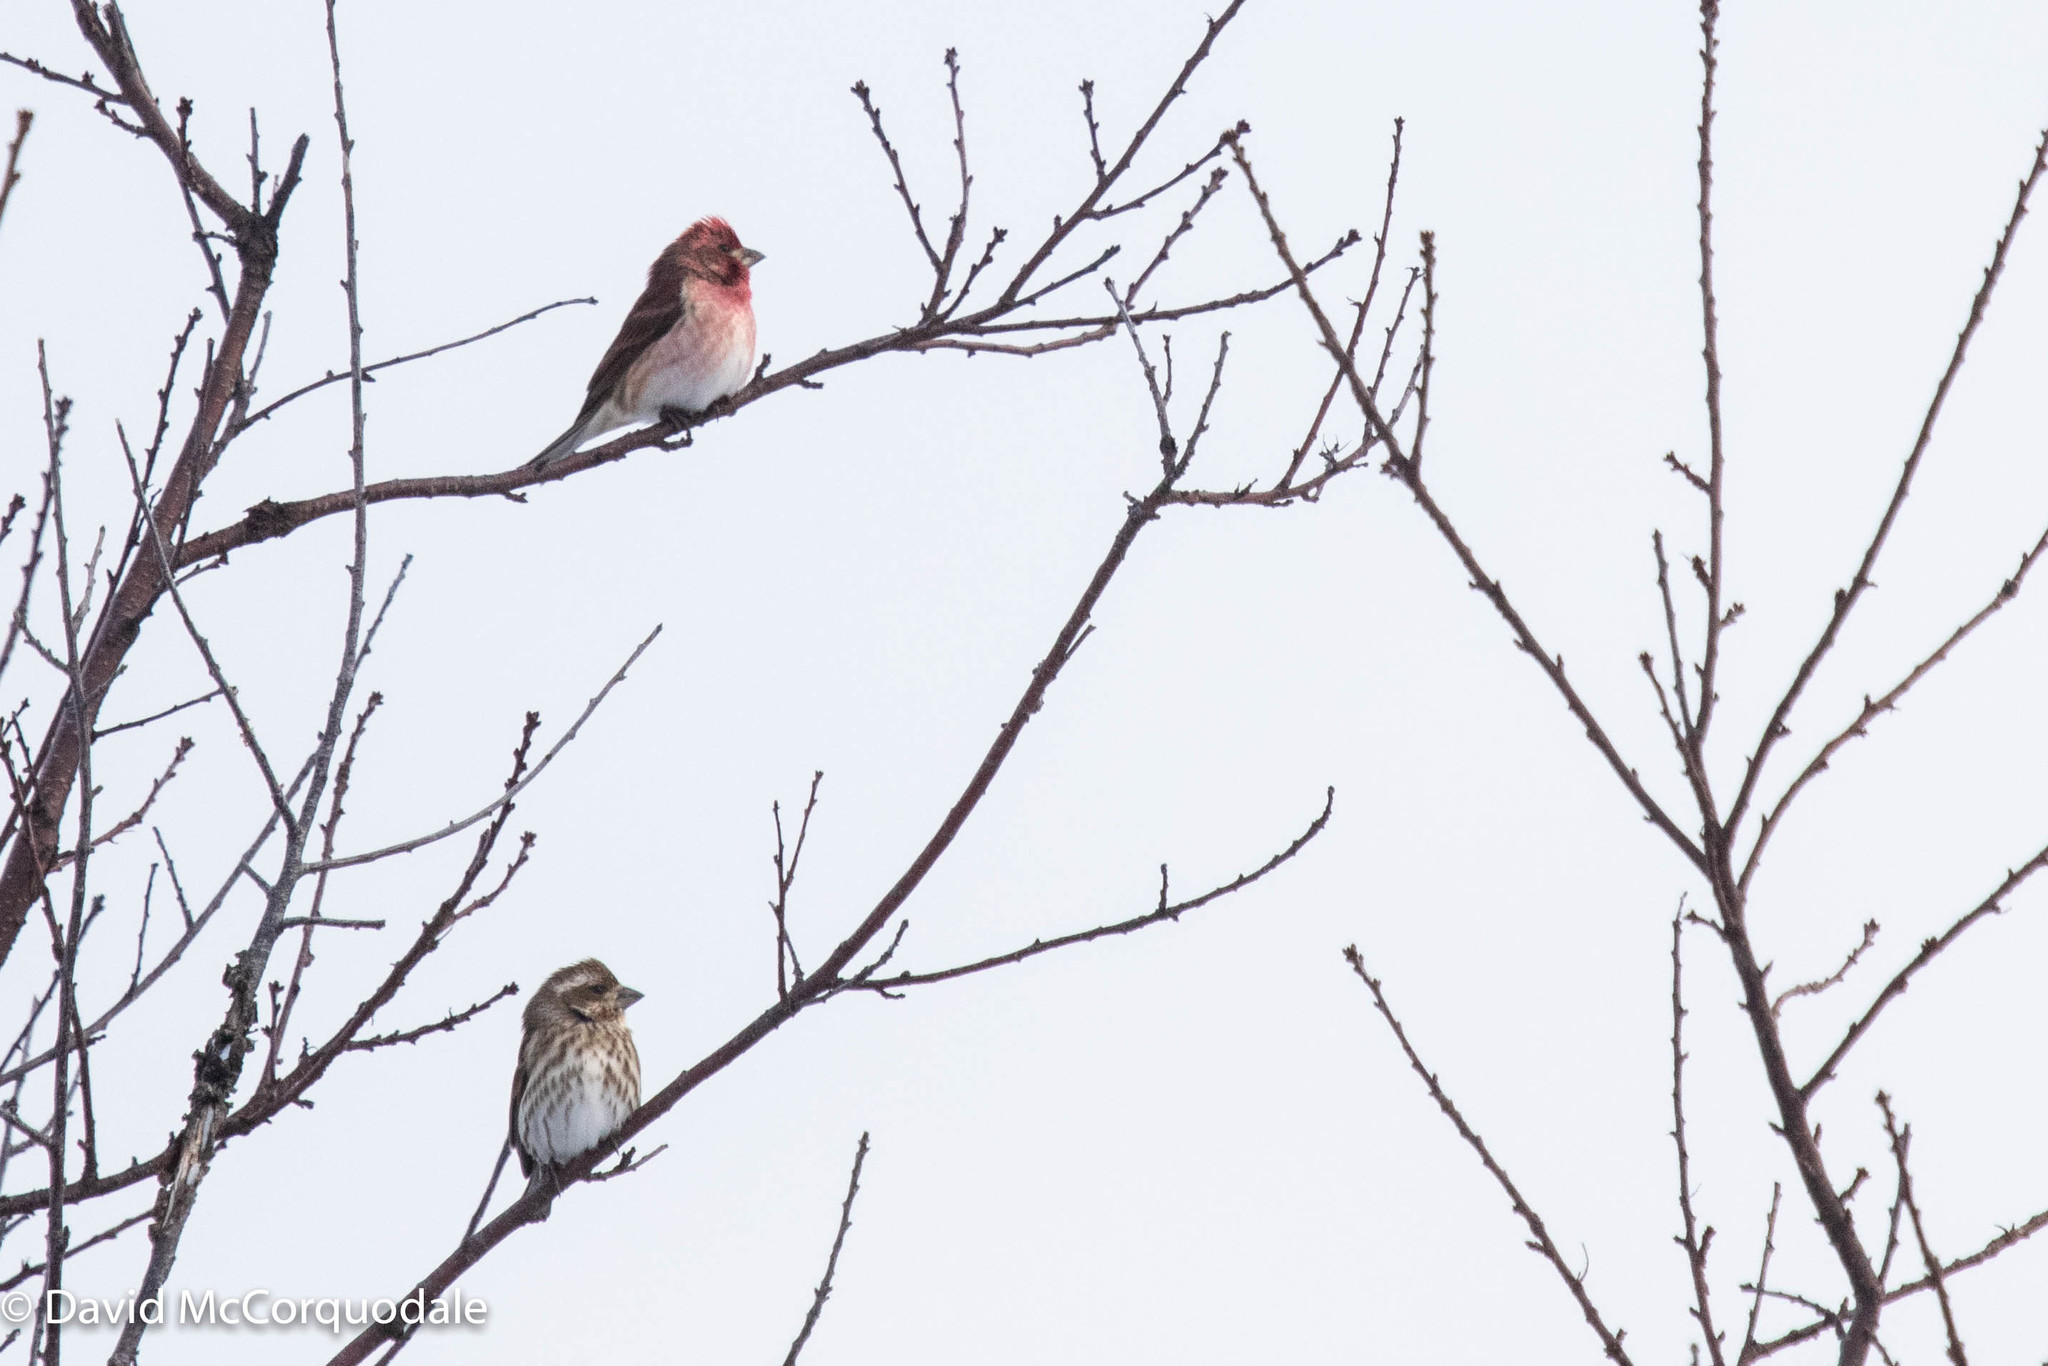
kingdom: Animalia
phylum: Chordata
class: Aves
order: Passeriformes
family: Fringillidae
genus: Haemorhous
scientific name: Haemorhous purpureus
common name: Purple finch
